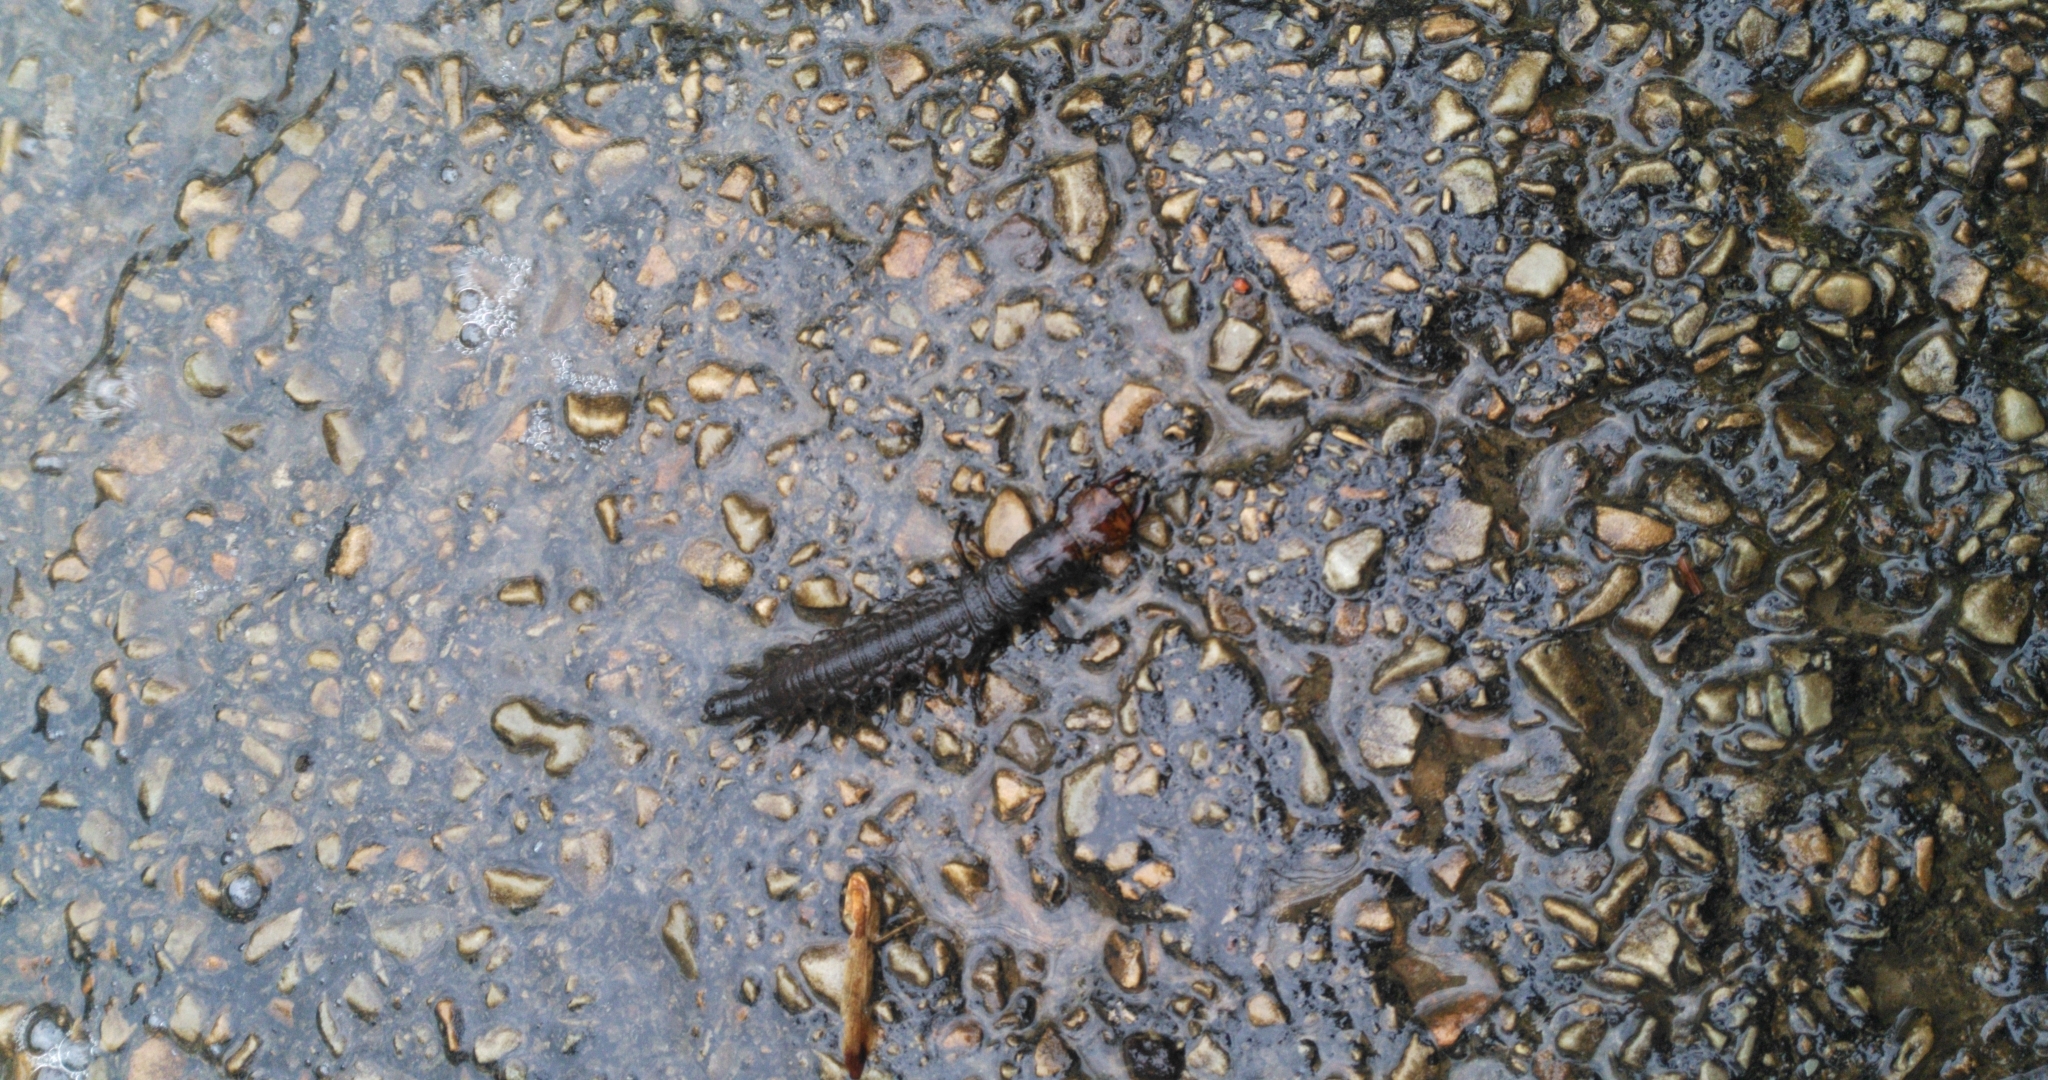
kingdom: Animalia
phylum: Arthropoda
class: Insecta
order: Megaloptera
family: Corydalidae
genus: Corydalus
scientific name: Corydalus cornutus
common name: Dobsonfly
